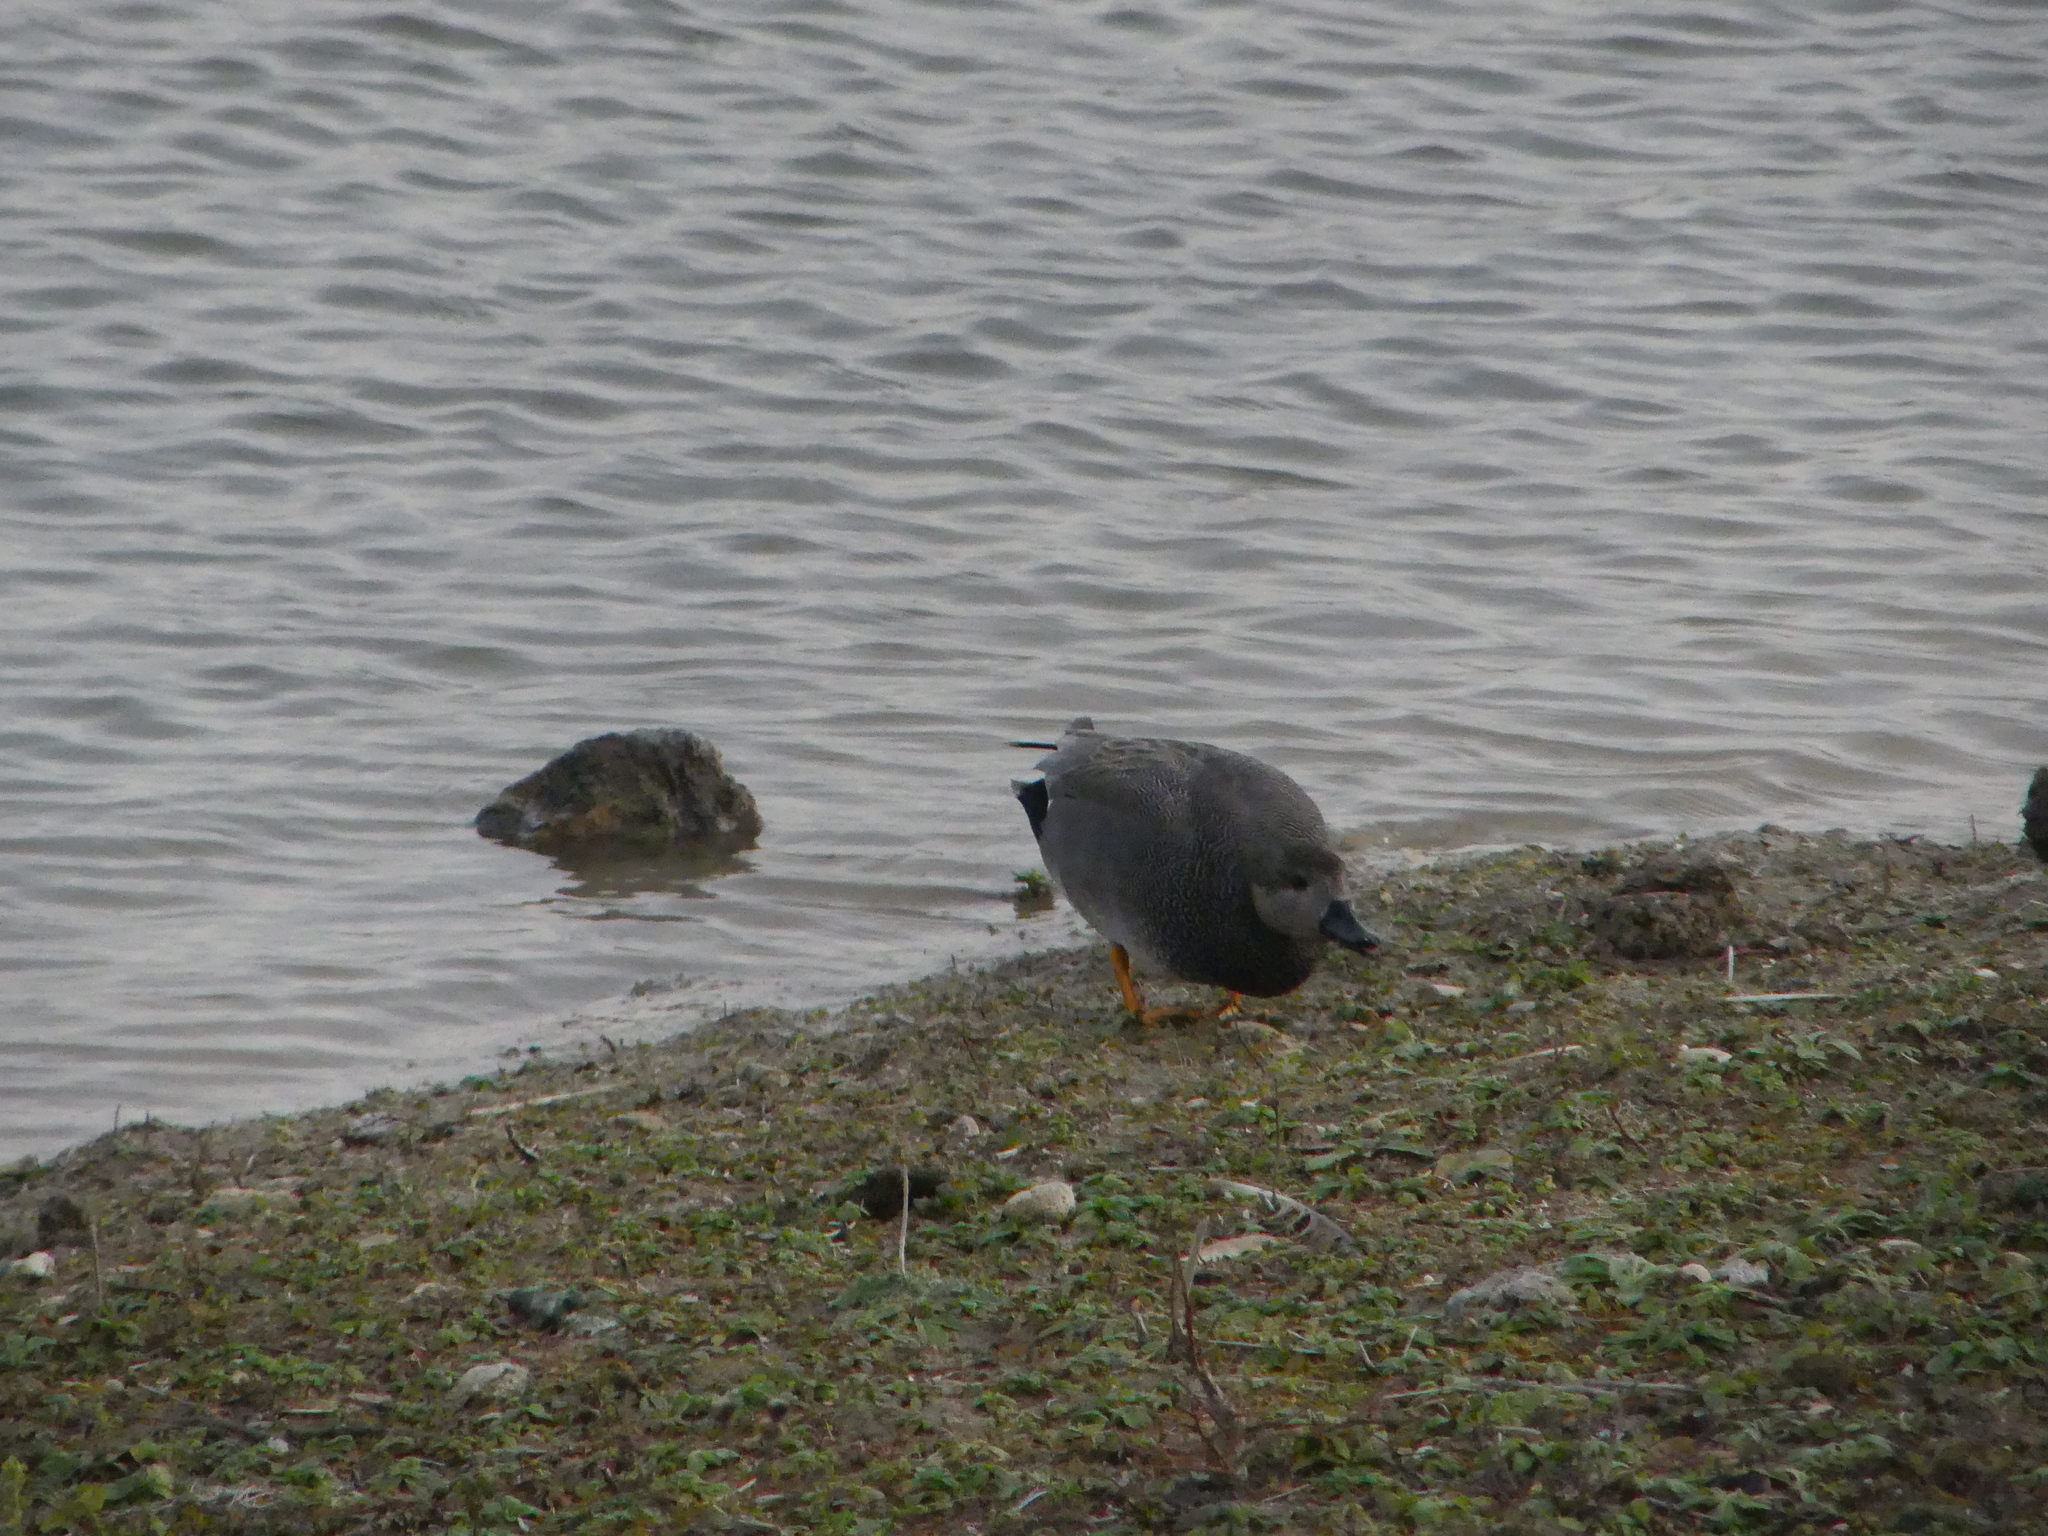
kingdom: Animalia
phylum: Chordata
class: Aves
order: Anseriformes
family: Anatidae
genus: Mareca
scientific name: Mareca strepera
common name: Gadwall
